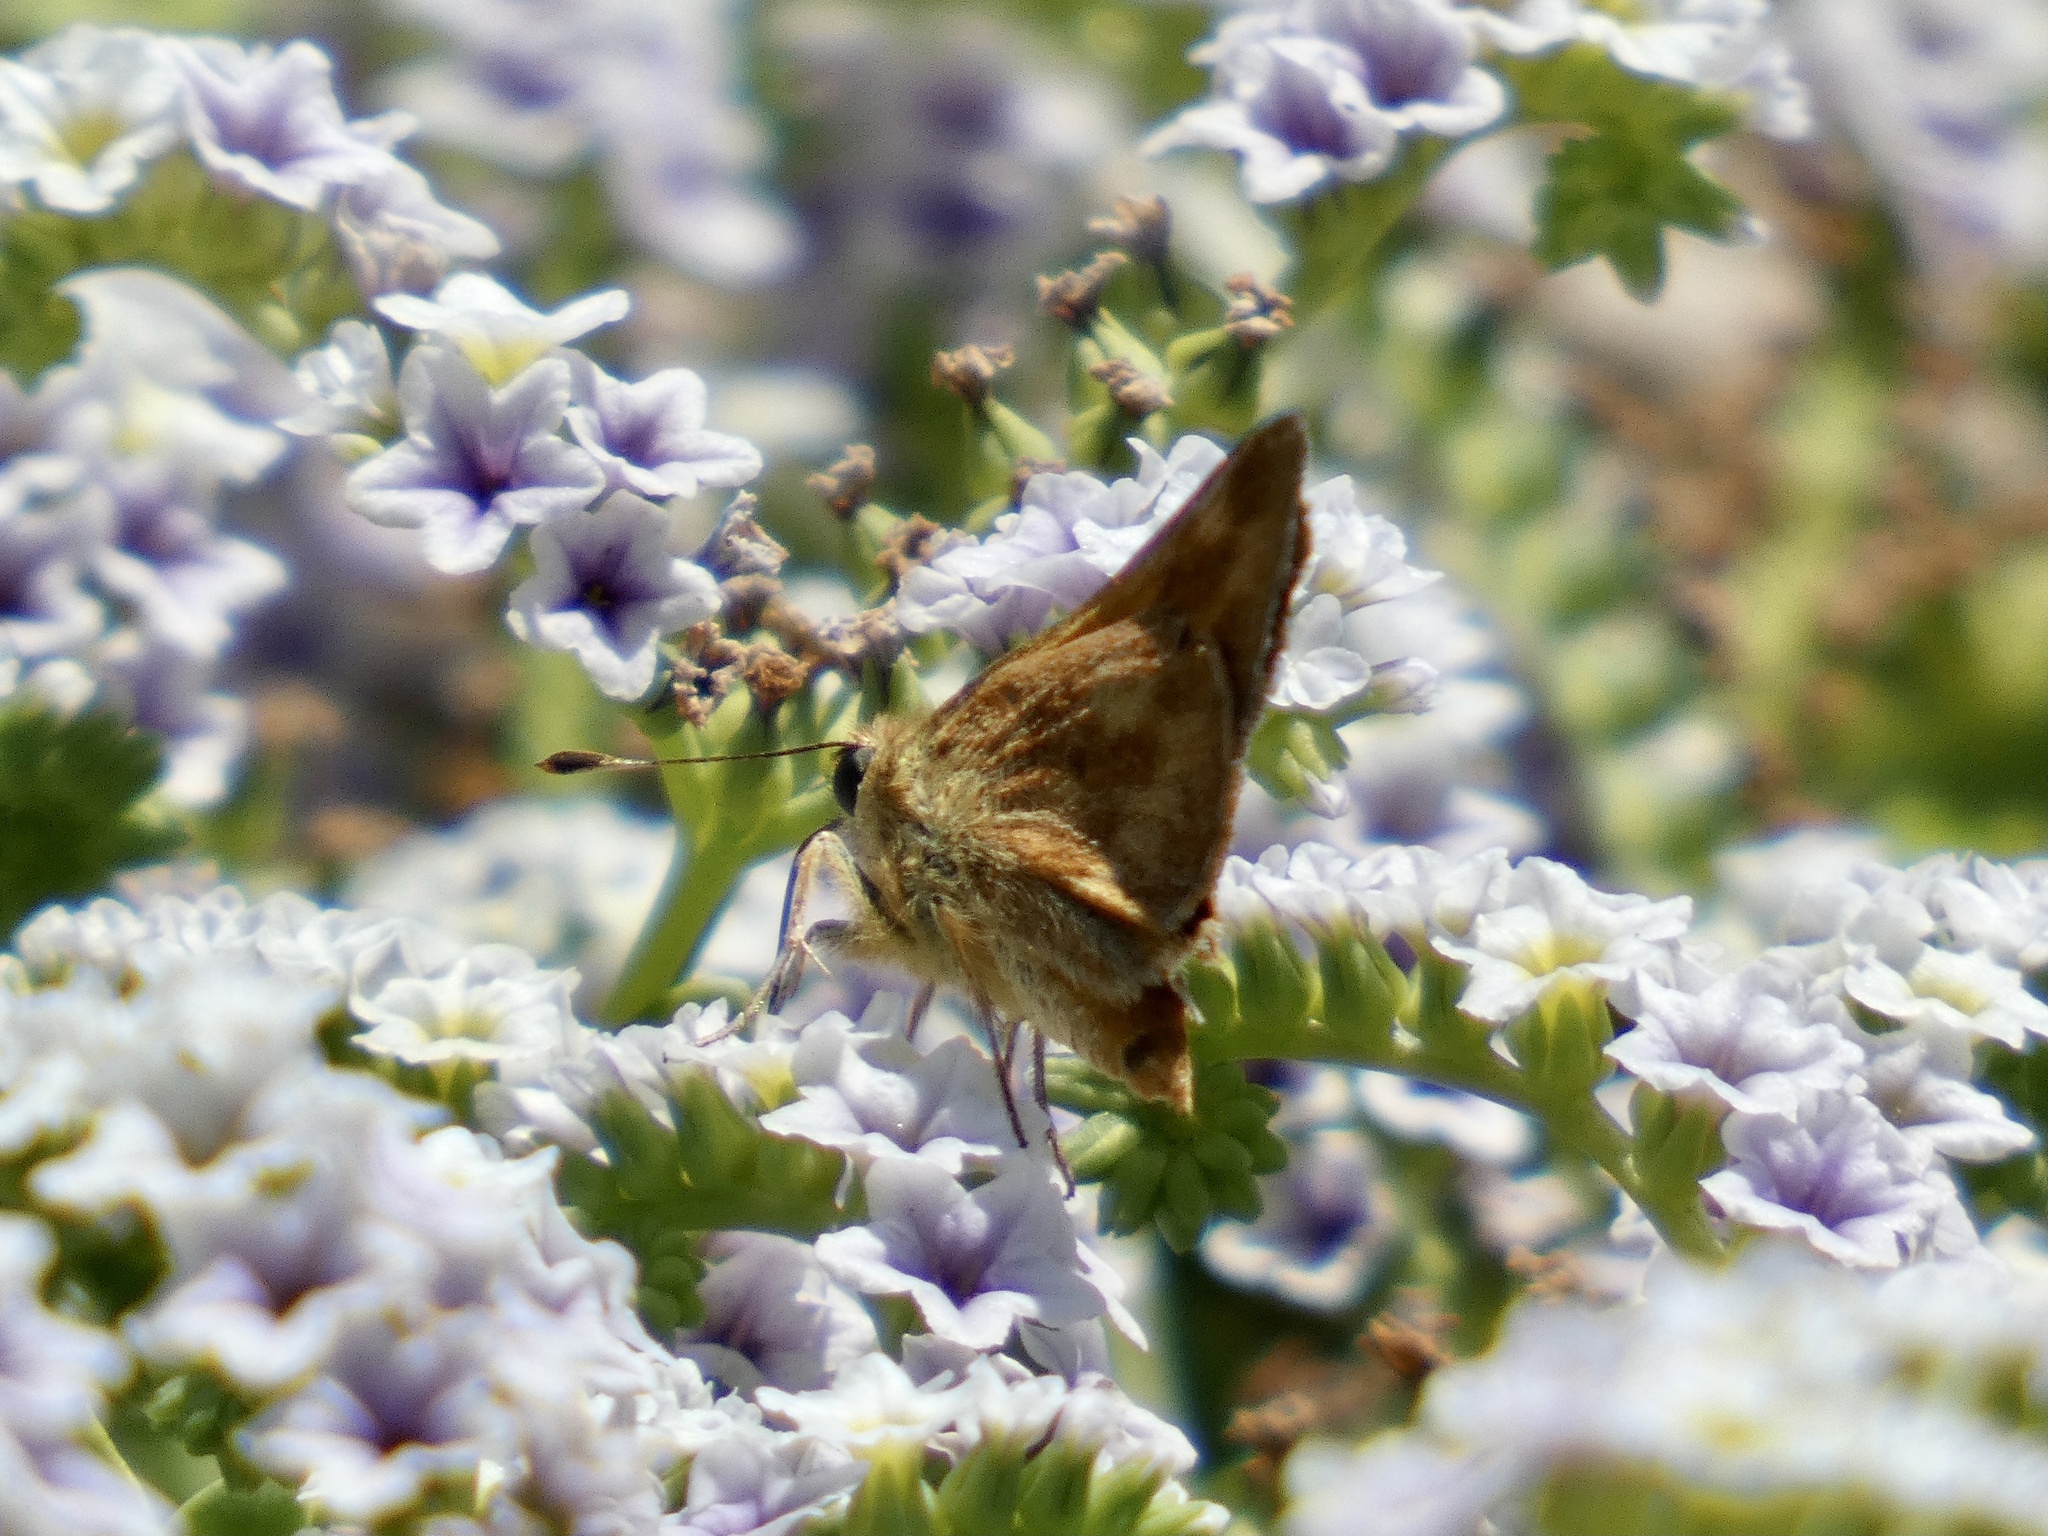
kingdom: Animalia
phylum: Arthropoda
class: Insecta
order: Lepidoptera
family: Hesperiidae
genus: Ochlodes
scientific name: Ochlodes sylvanoides
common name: Woodland skipper
